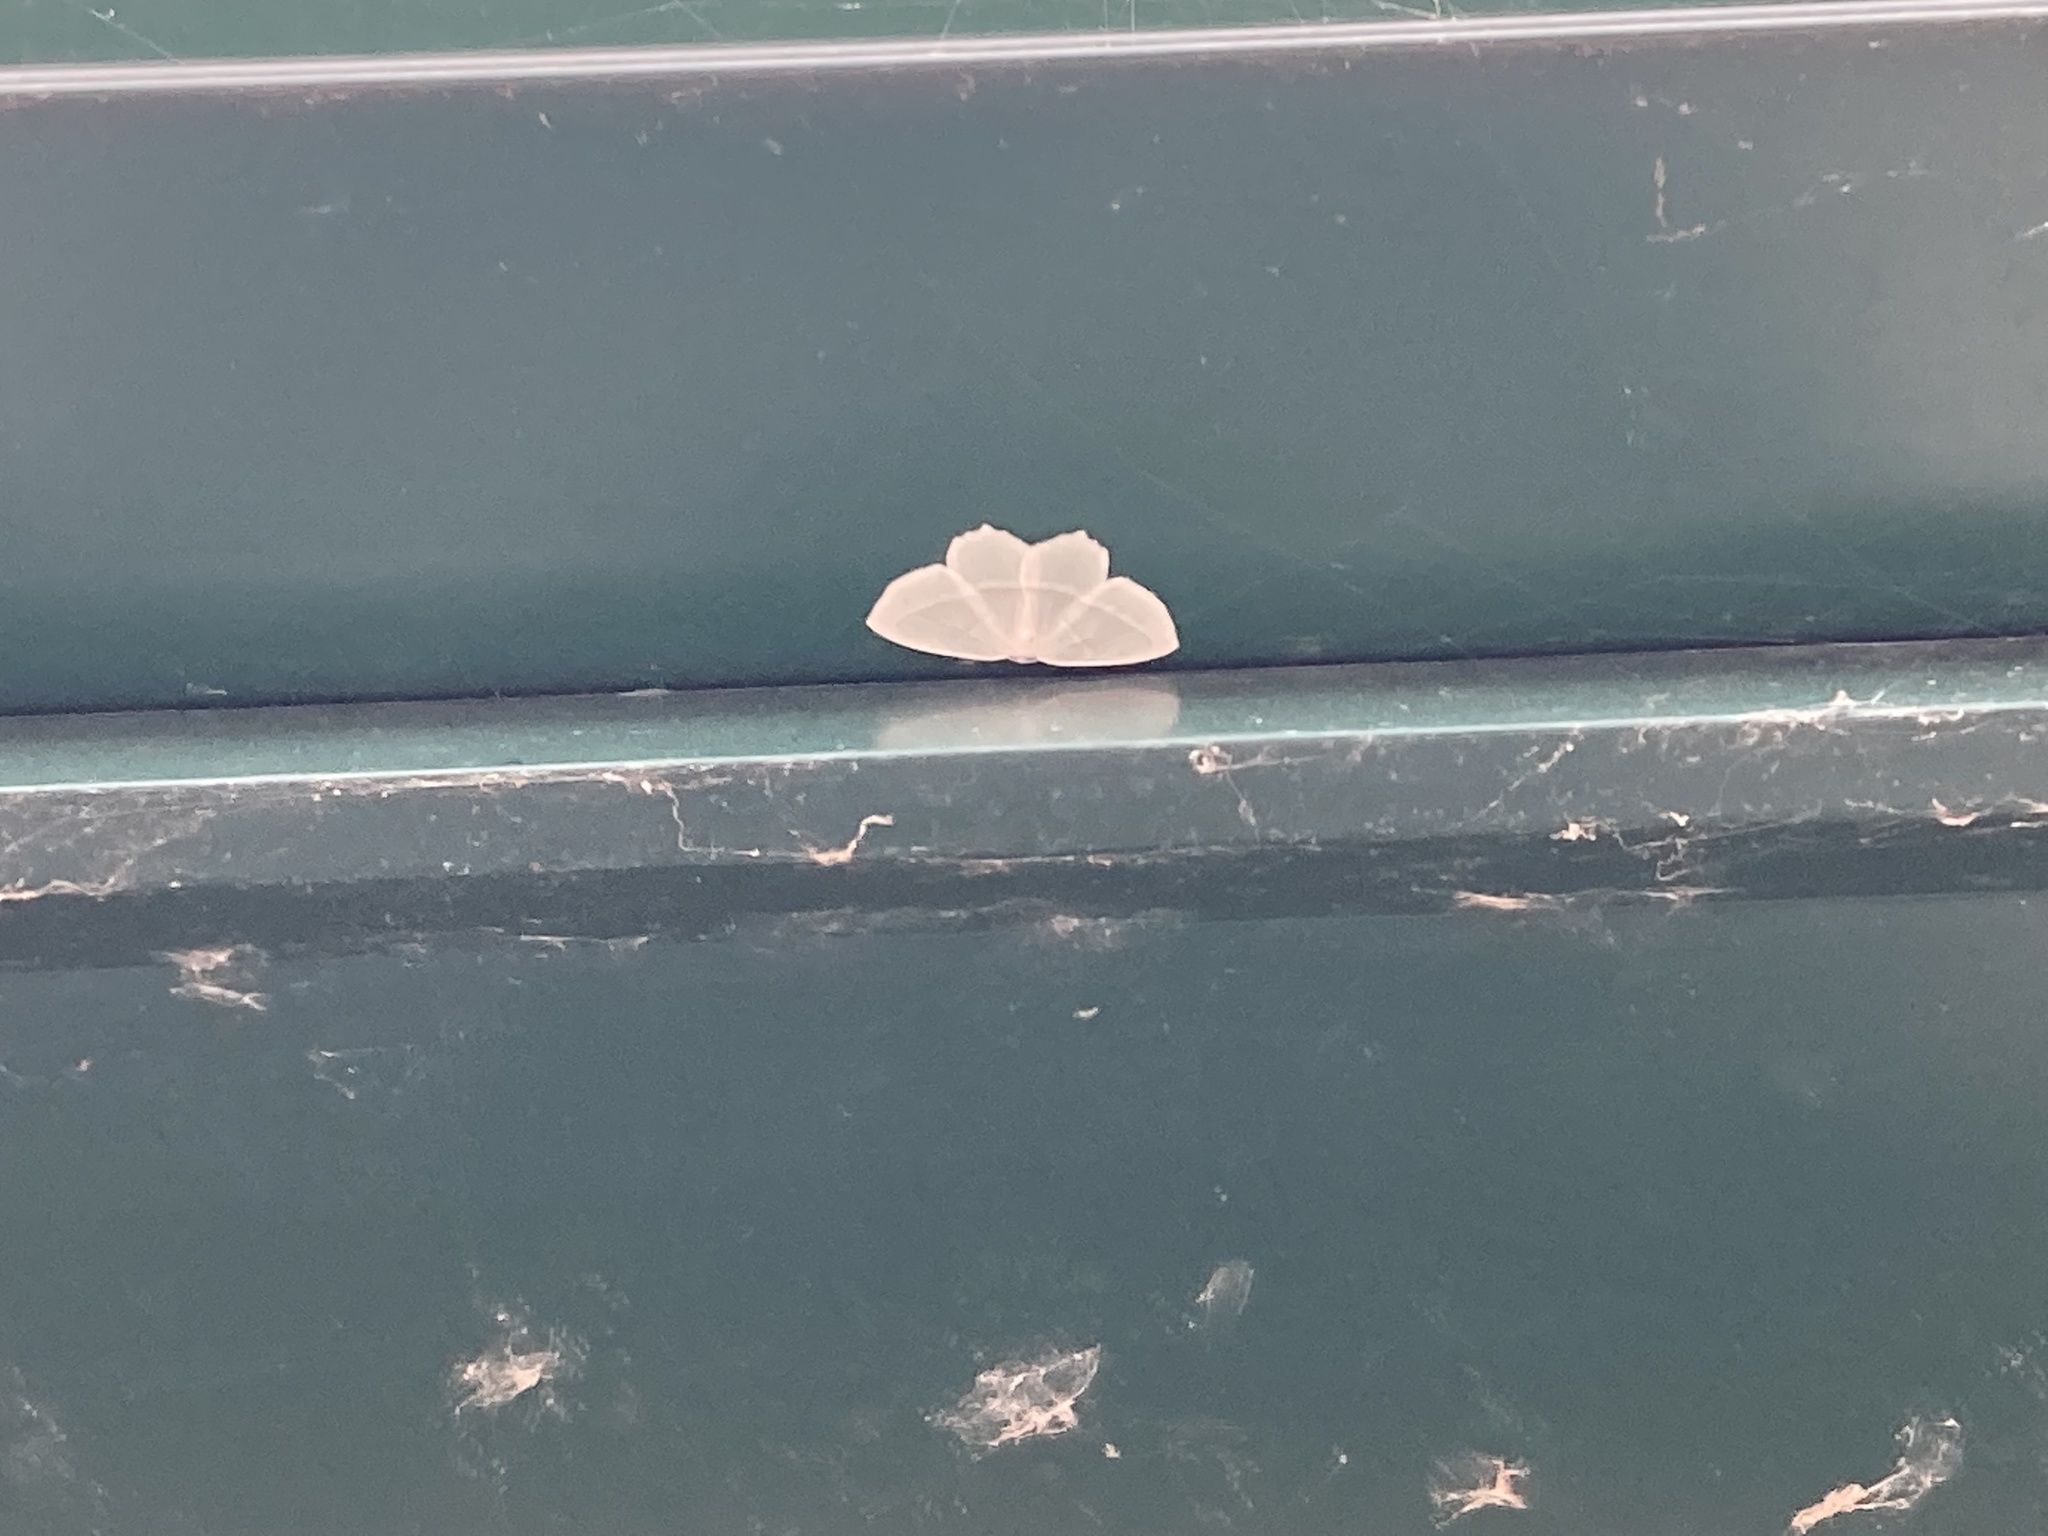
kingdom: Animalia
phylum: Arthropoda
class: Insecta
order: Lepidoptera
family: Geometridae
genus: Campaea
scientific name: Campaea perlata
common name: Fringed looper
